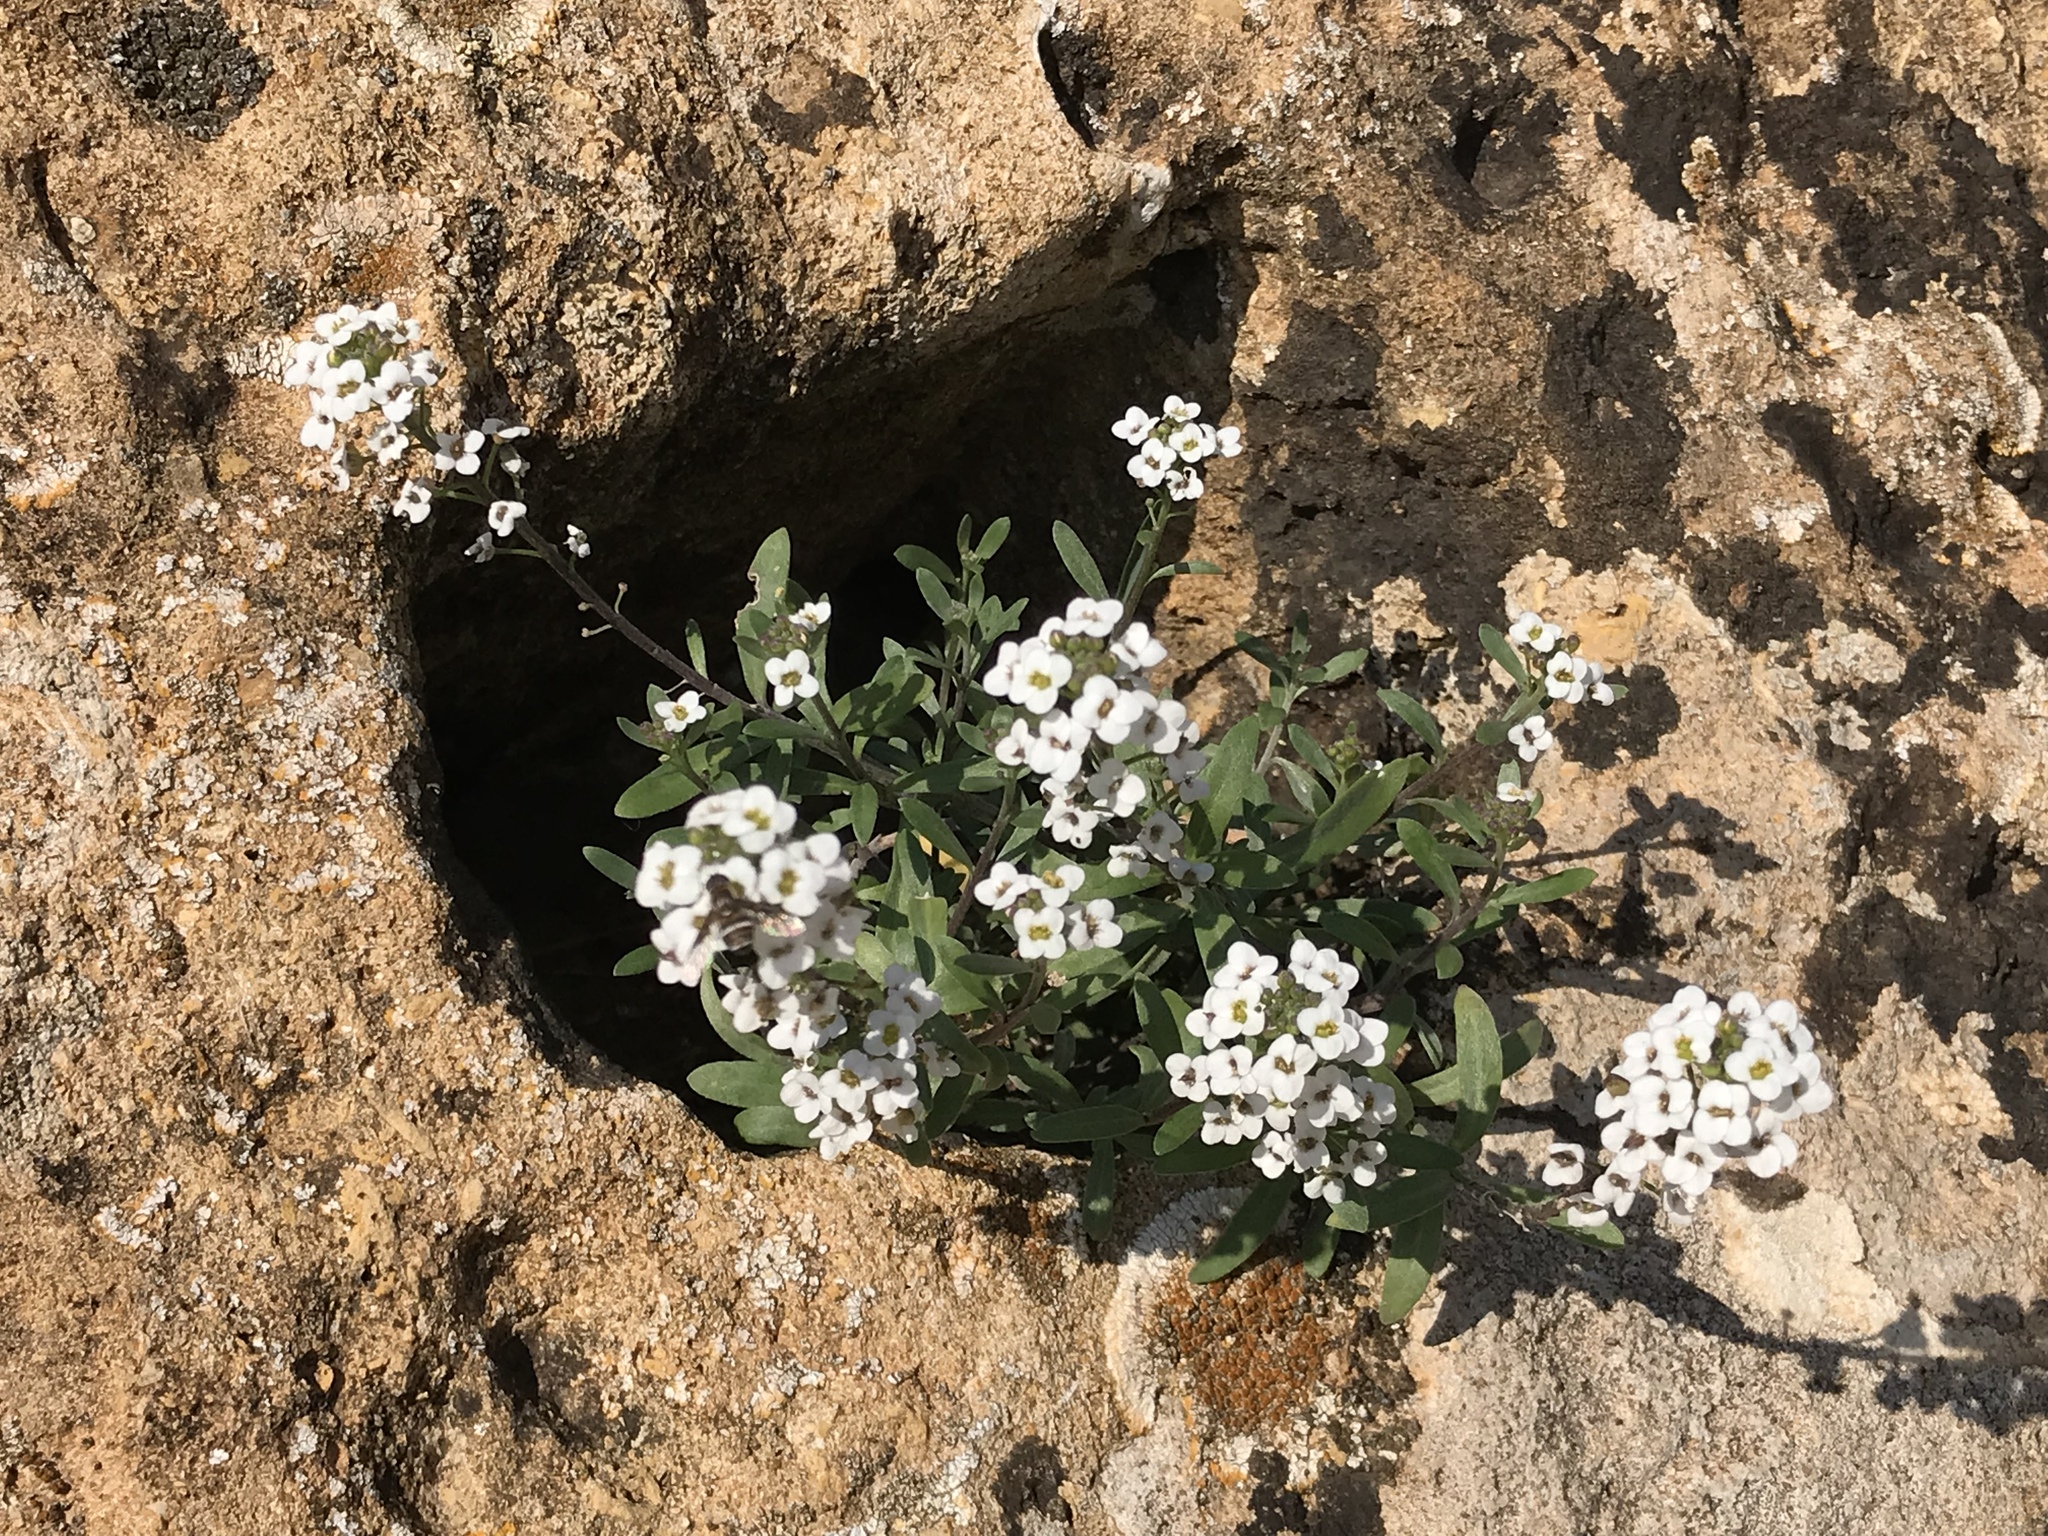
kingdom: Plantae
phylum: Tracheophyta
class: Magnoliopsida
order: Brassicales
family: Brassicaceae
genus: Lobularia
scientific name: Lobularia maritima
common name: Sweet alison
